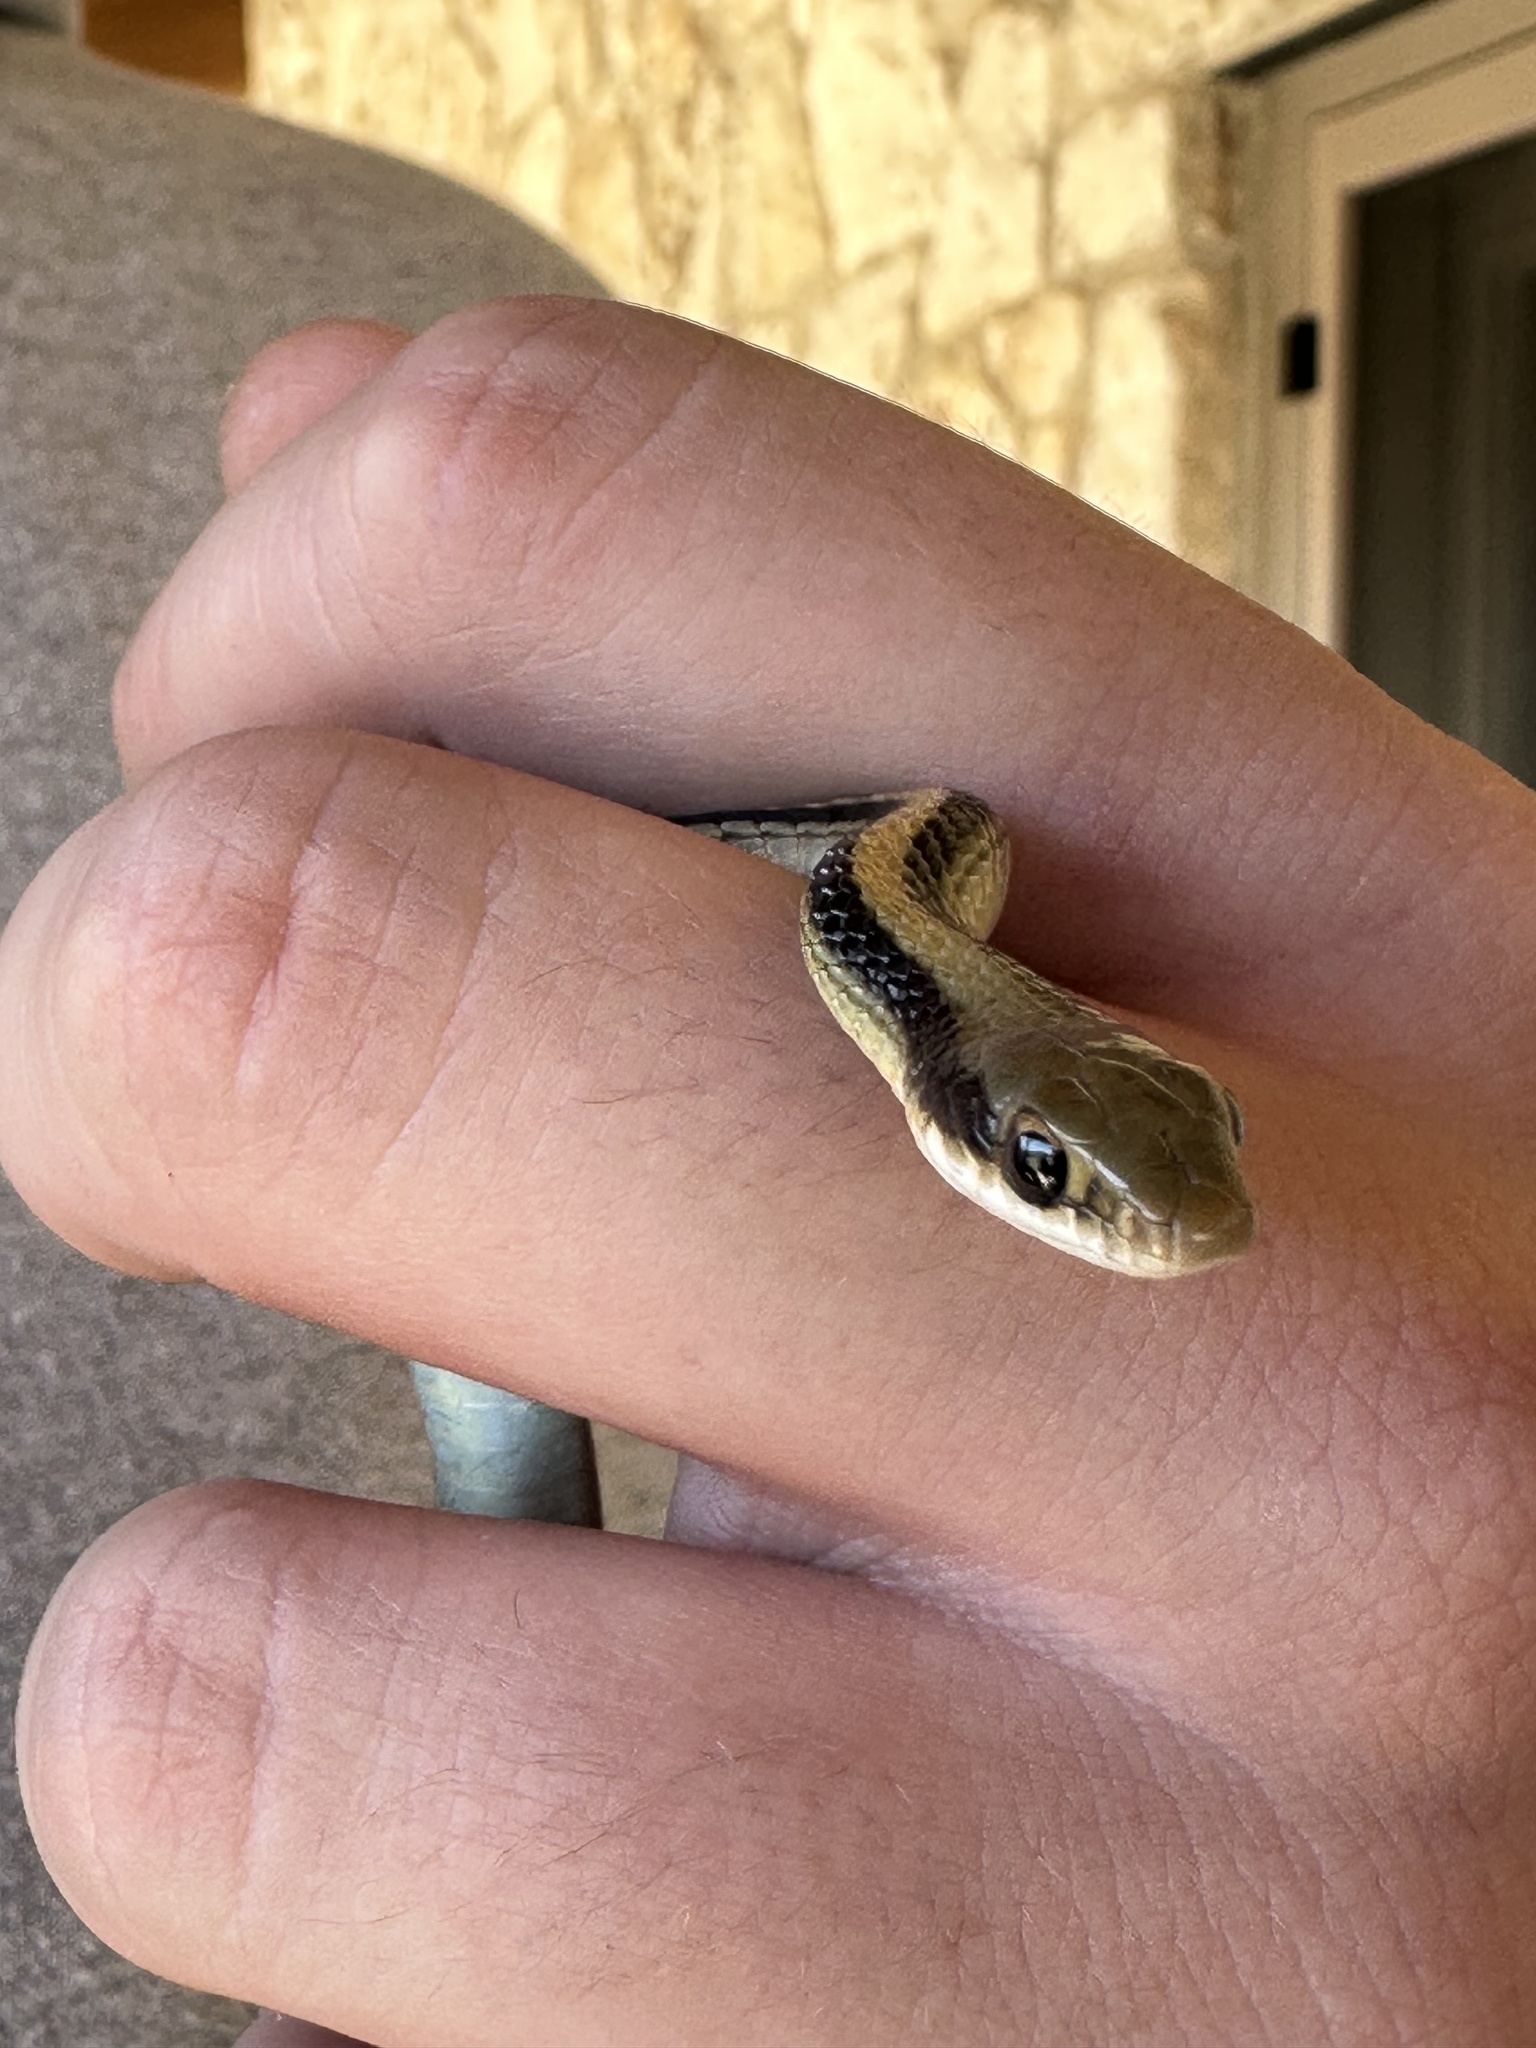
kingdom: Animalia
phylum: Chordata
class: Squamata
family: Colubridae
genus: Salvadora
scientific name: Salvadora lineata
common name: Texas patchnose snake
